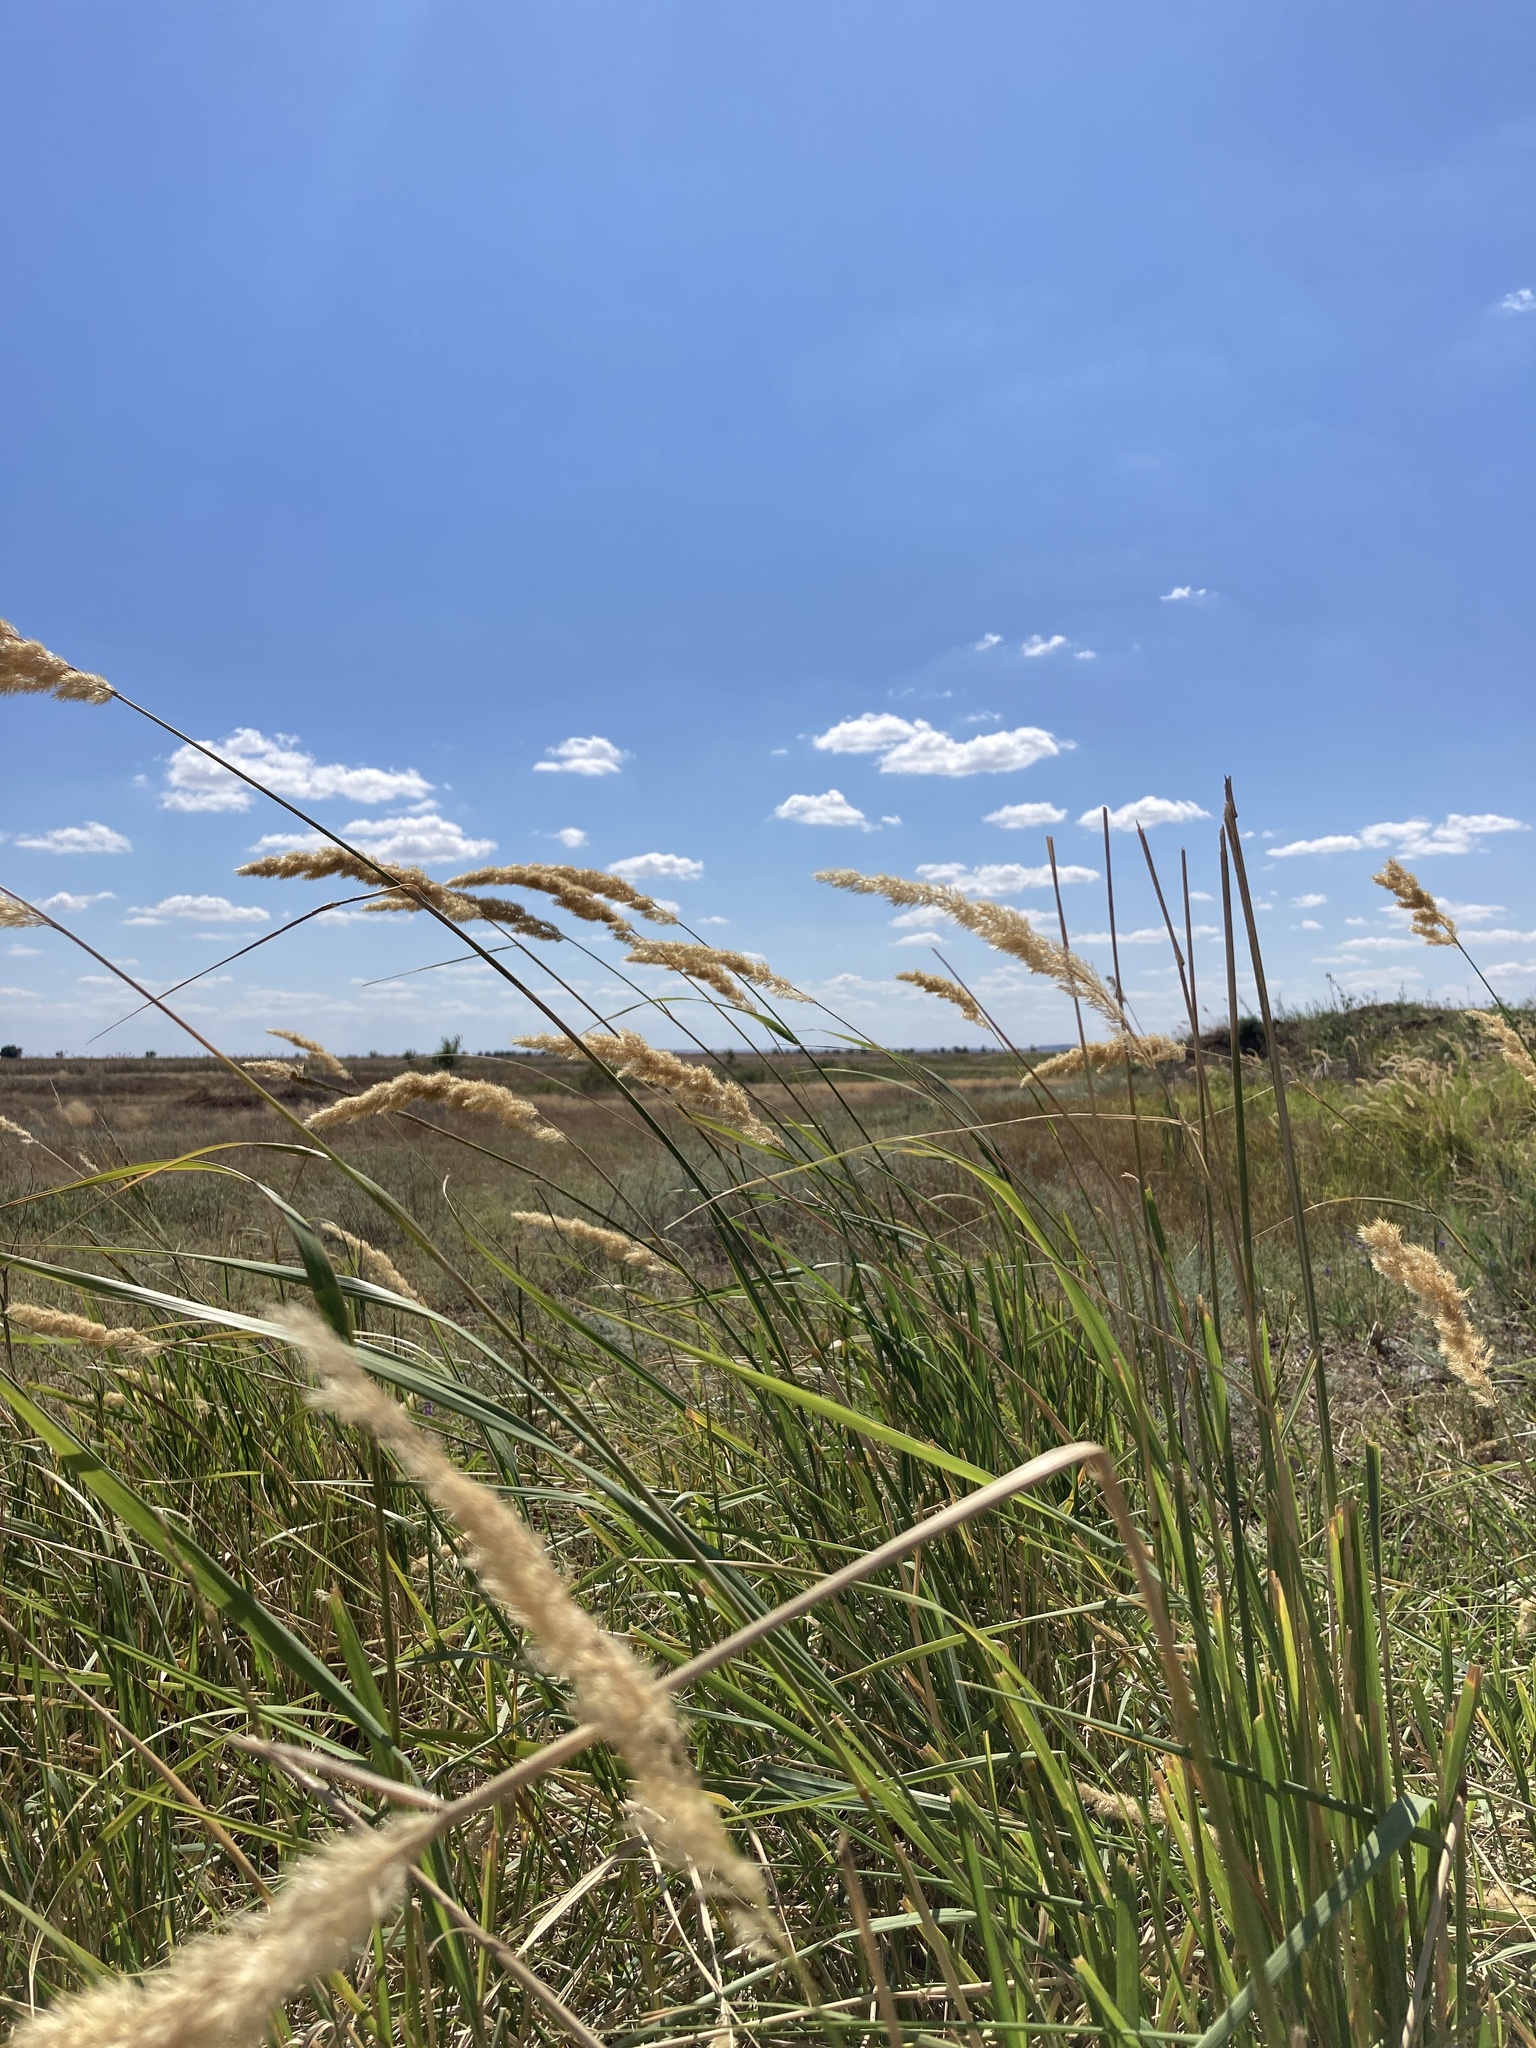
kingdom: Plantae
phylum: Tracheophyta
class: Liliopsida
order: Poales
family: Poaceae
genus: Calamagrostis
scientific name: Calamagrostis epigejos
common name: Wood small-reed
